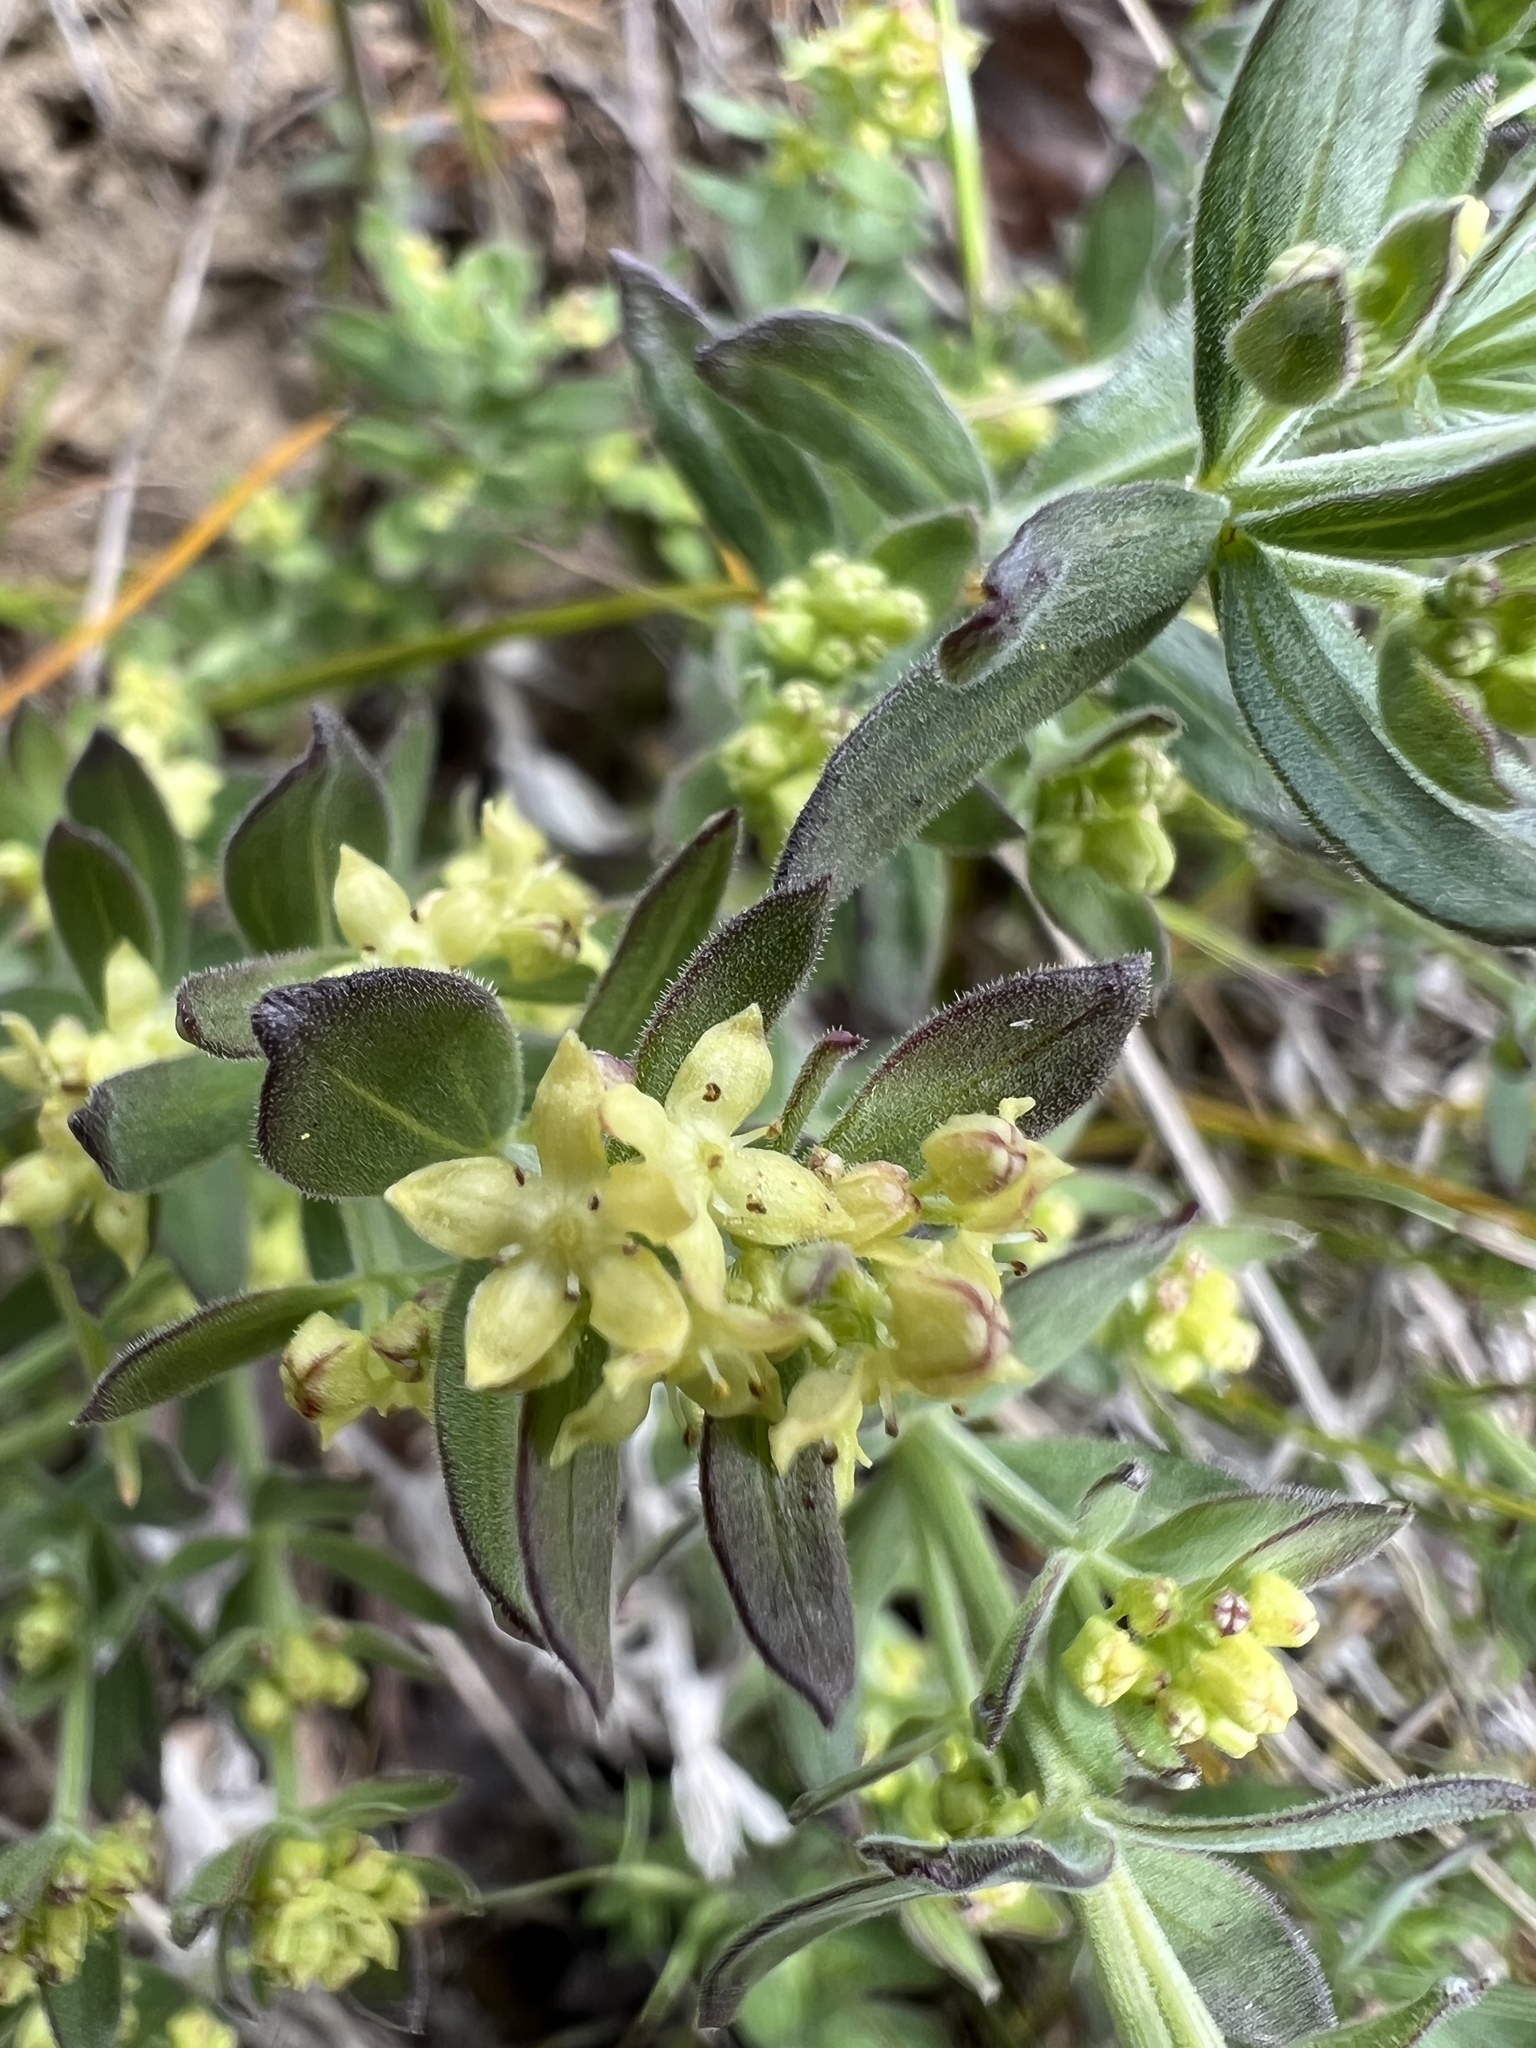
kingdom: Plantae
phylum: Tracheophyta
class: Magnoliopsida
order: Gentianales
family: Rubiaceae
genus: Galium
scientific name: Galium serpenticum
